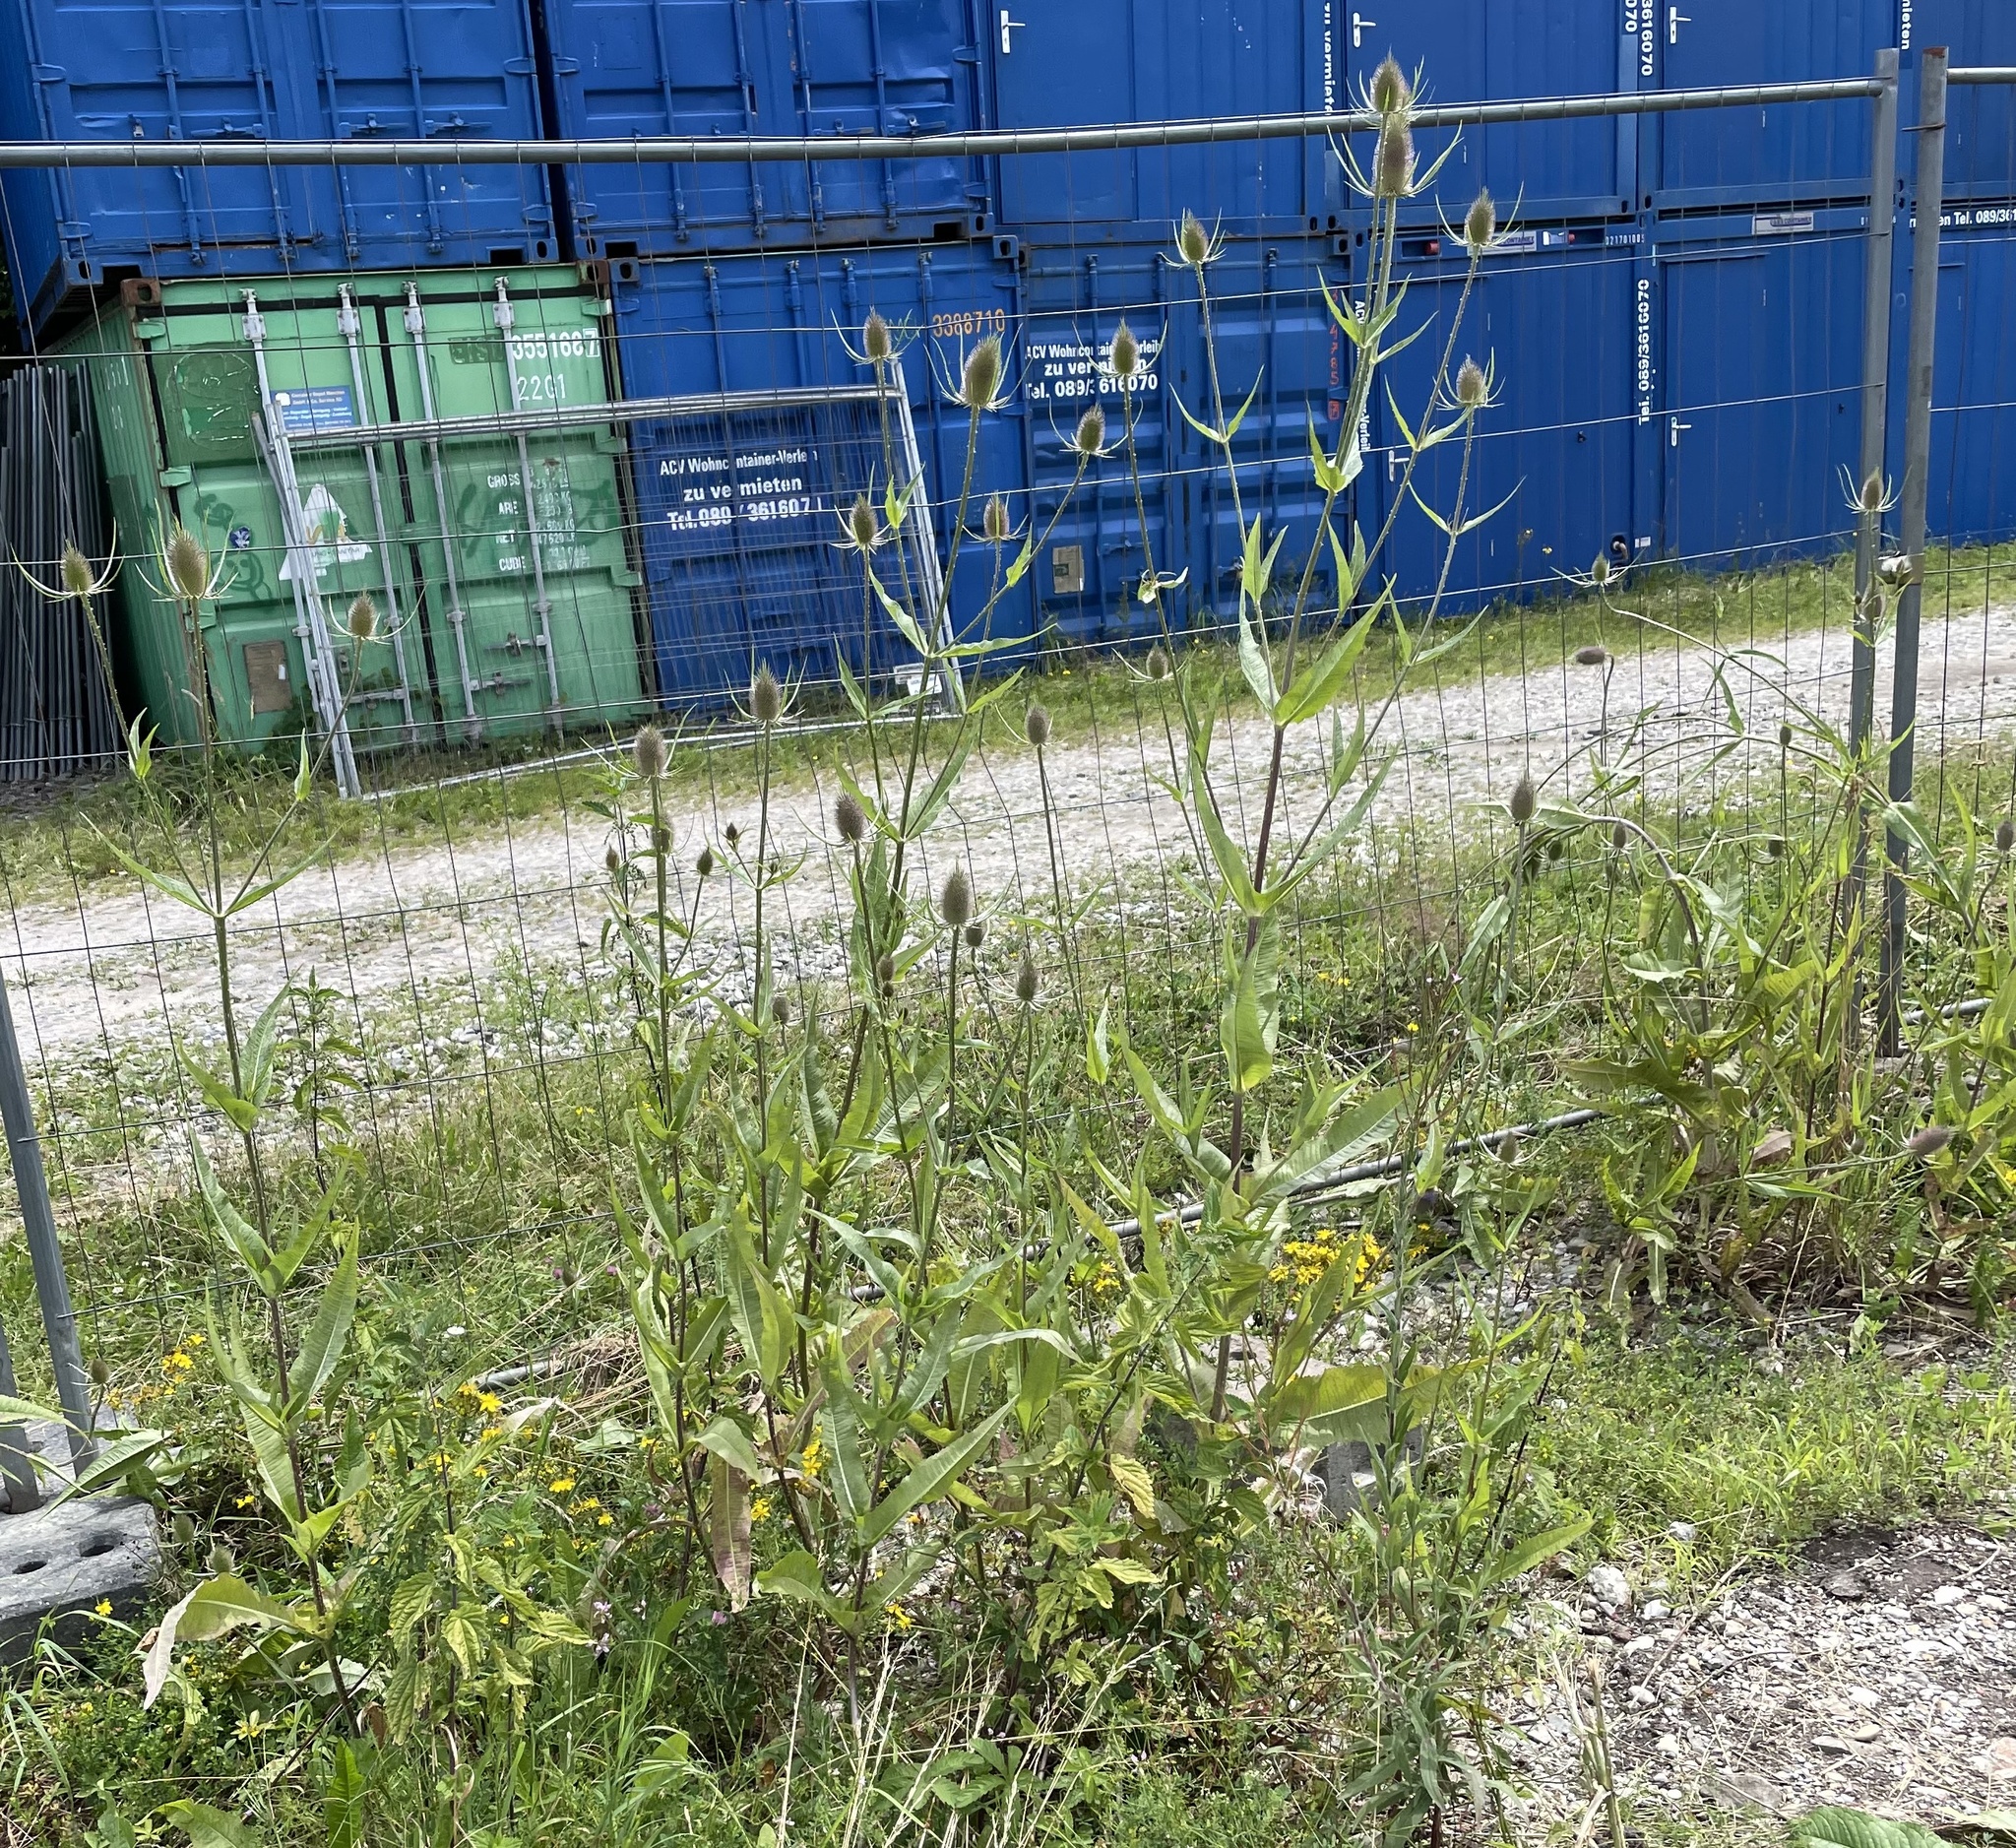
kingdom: Plantae
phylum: Tracheophyta
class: Magnoliopsida
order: Dipsacales
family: Caprifoliaceae
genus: Dipsacus
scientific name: Dipsacus fullonum
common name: Teasel
